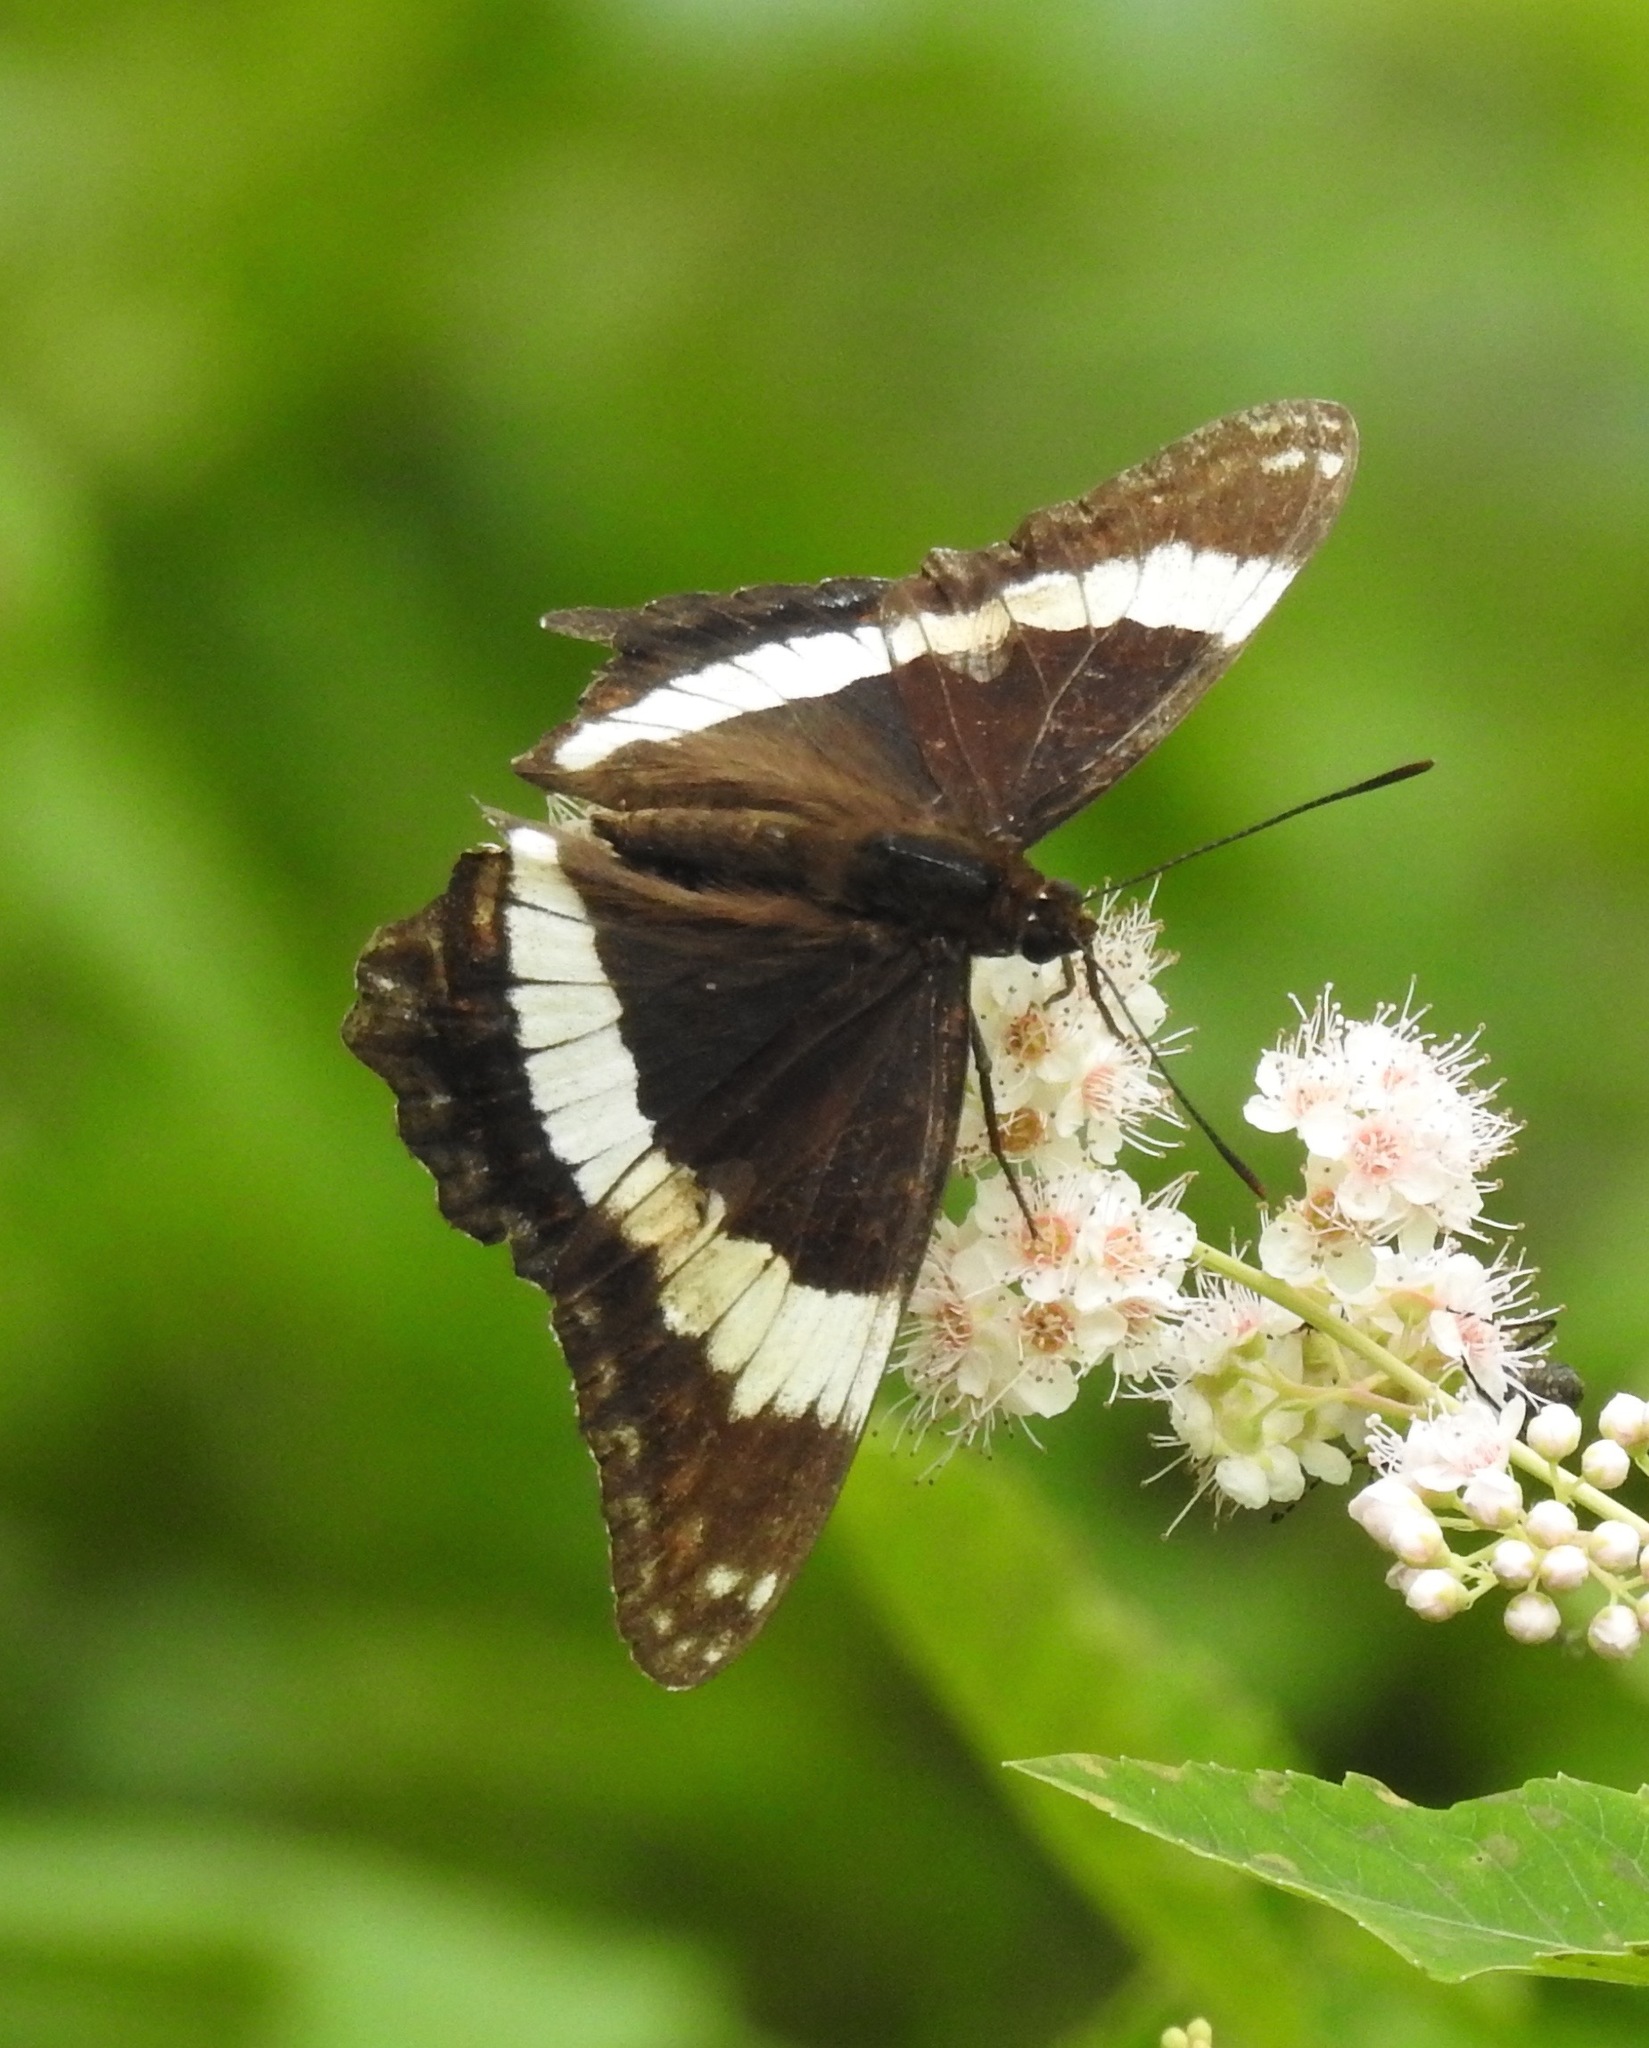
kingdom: Animalia
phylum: Arthropoda
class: Insecta
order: Lepidoptera
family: Nymphalidae
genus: Limenitis
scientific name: Limenitis arthemis
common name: Red-spotted admiral
